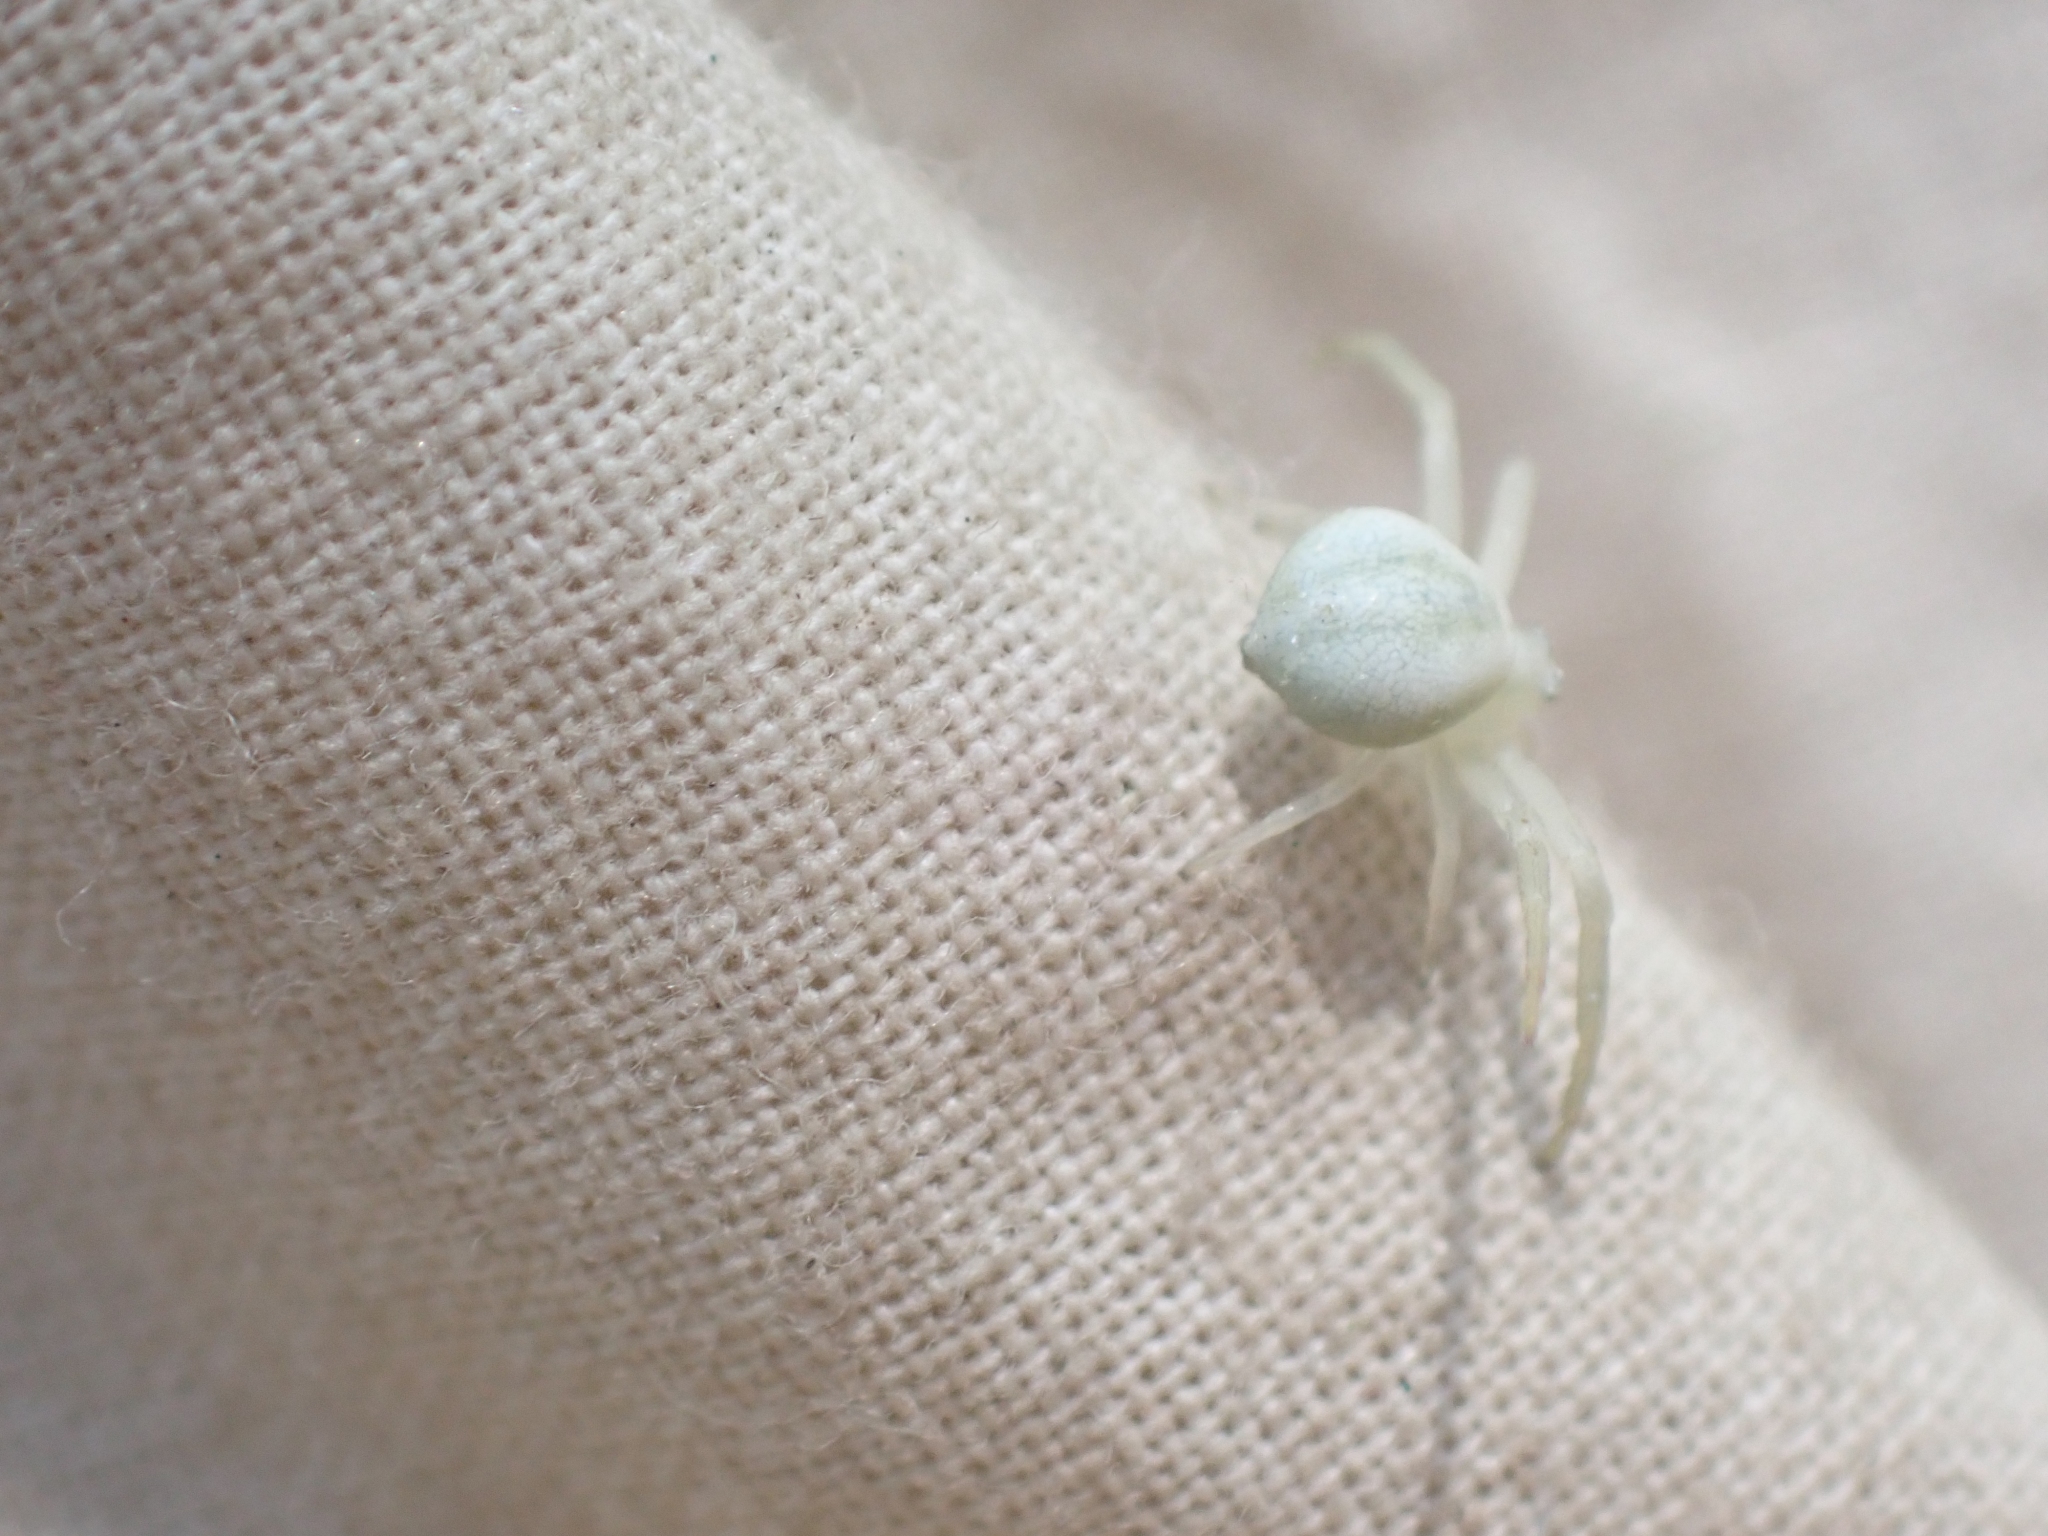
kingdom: Animalia
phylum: Arthropoda
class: Arachnida
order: Araneae
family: Thomisidae
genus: Misumena
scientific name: Misumena vatia
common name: Goldenrod crab spider
